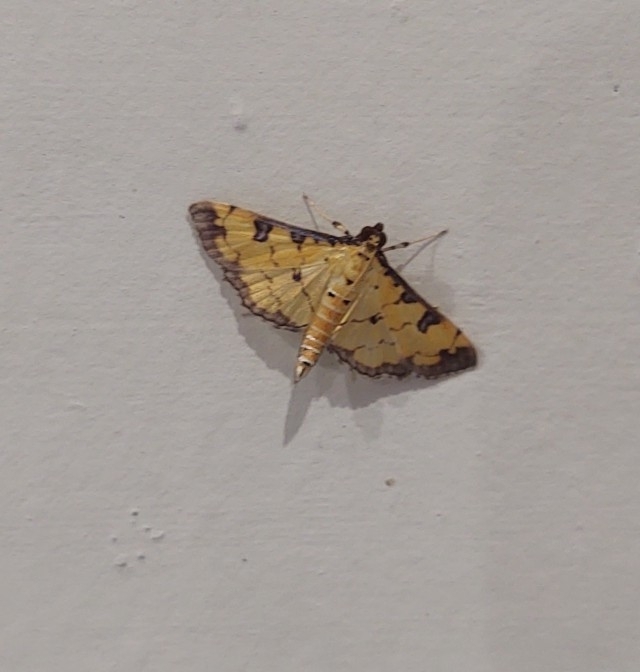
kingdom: Animalia
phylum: Arthropoda
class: Insecta
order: Lepidoptera
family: Crambidae
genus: Ategumia
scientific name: Ategumia ebulealis
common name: Moth
